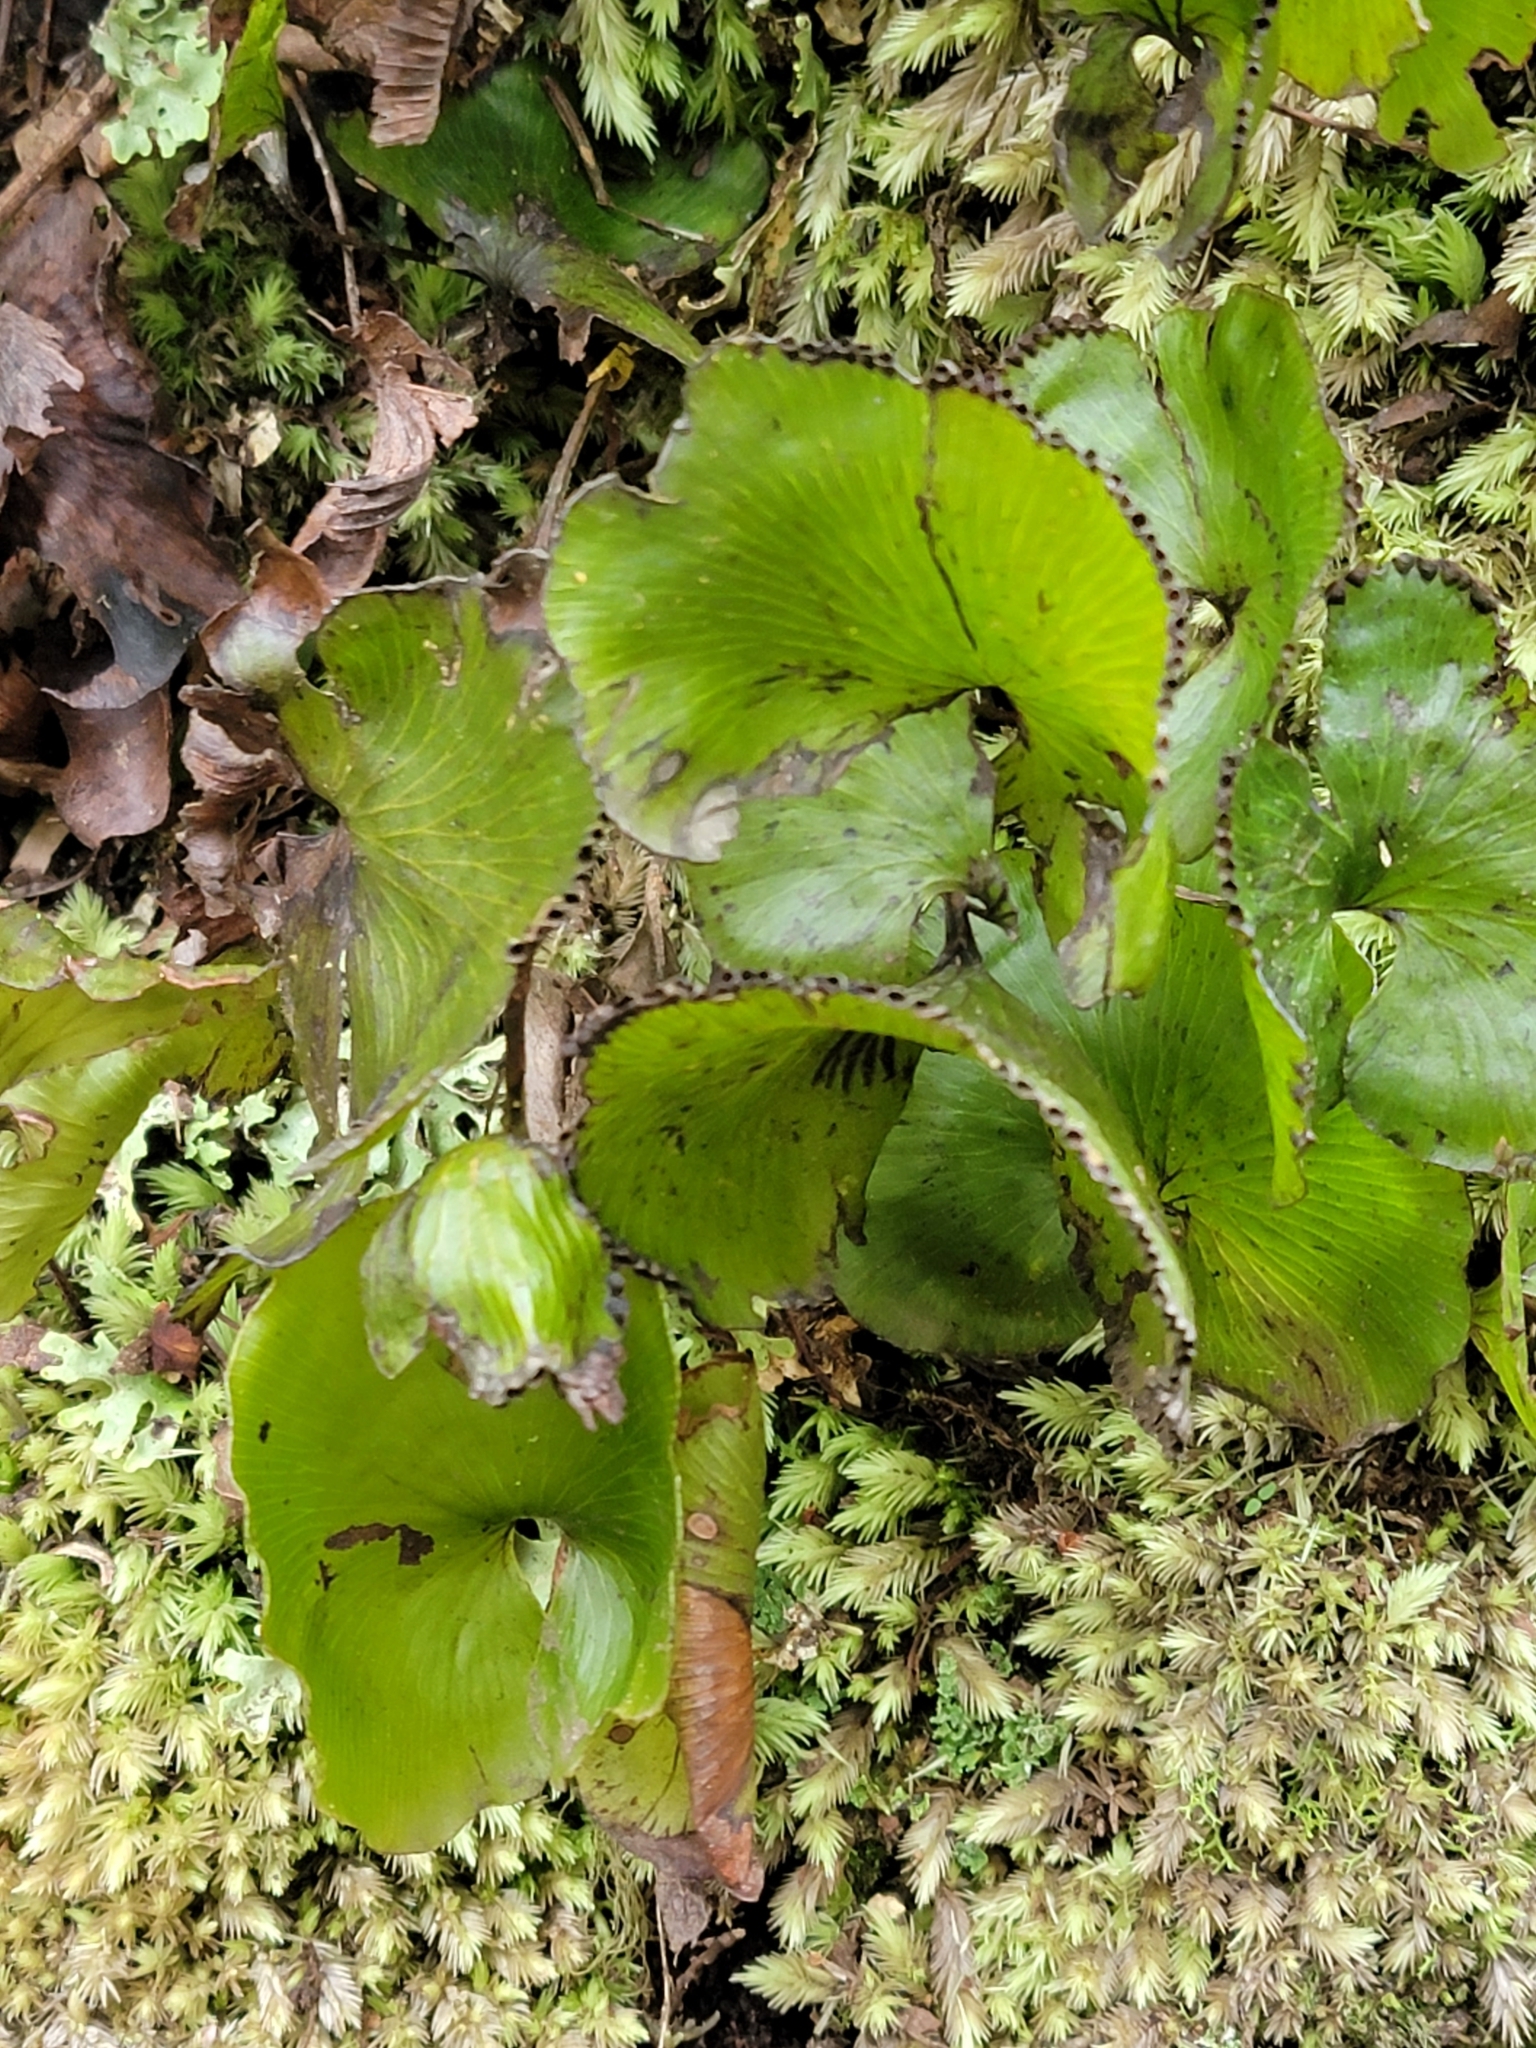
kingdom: Plantae
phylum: Tracheophyta
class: Polypodiopsida
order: Hymenophyllales
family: Hymenophyllaceae
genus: Hymenophyllum
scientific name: Hymenophyllum nephrophyllum
